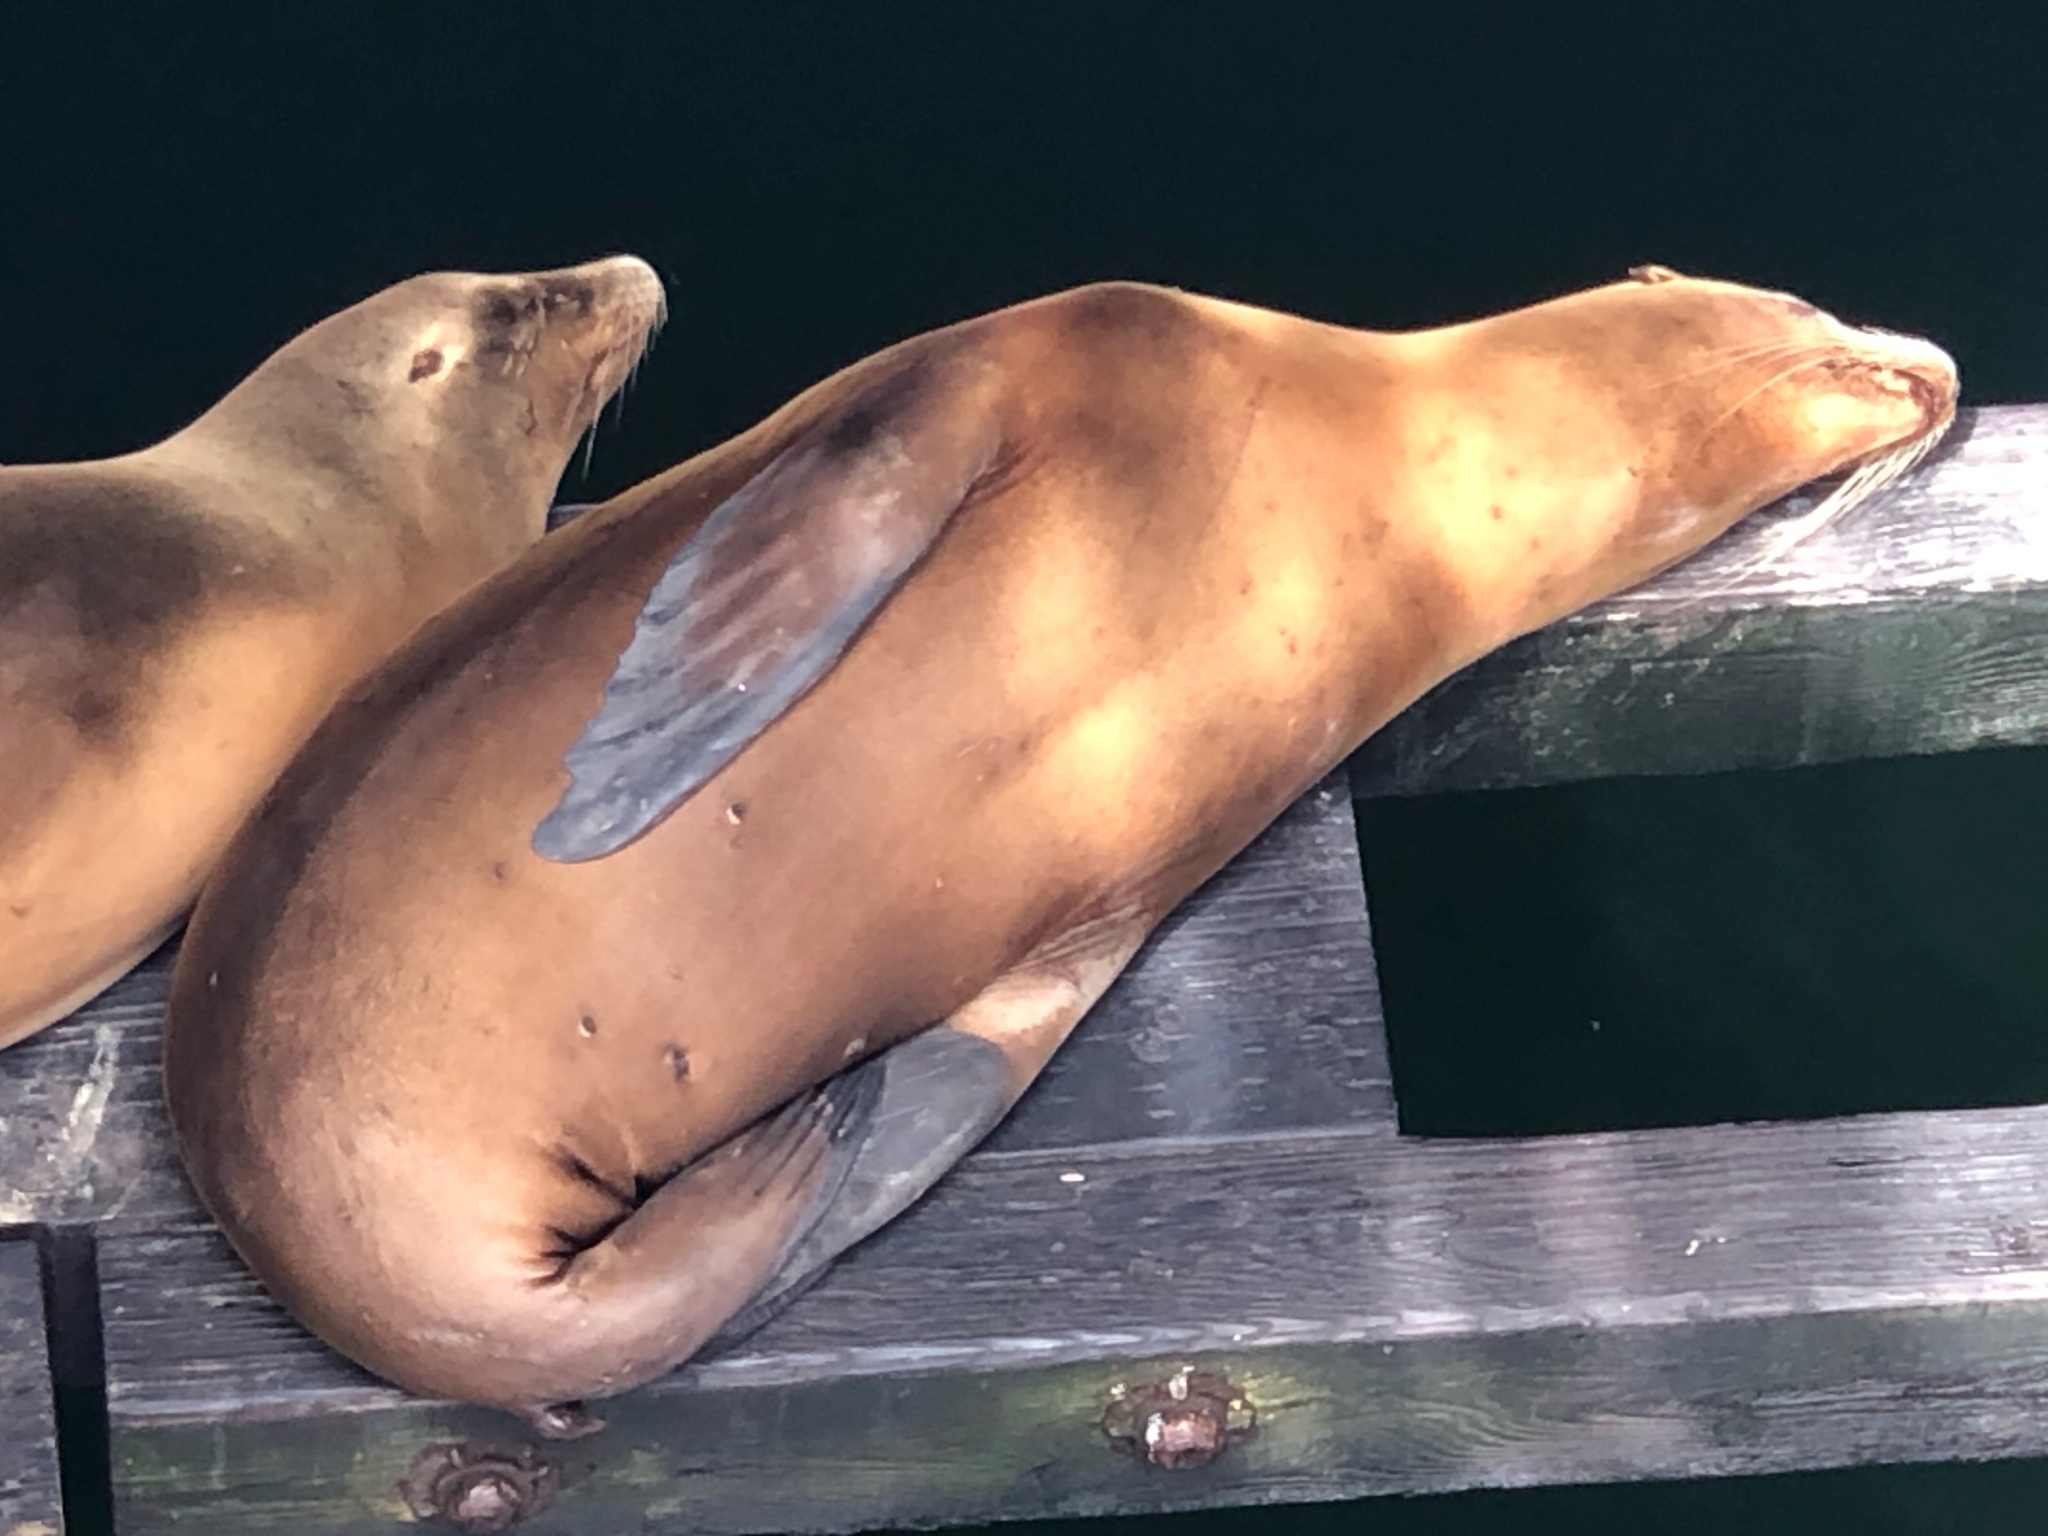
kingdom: Animalia
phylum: Chordata
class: Mammalia
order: Carnivora
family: Otariidae
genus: Zalophus
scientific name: Zalophus californianus
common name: California sea lion
